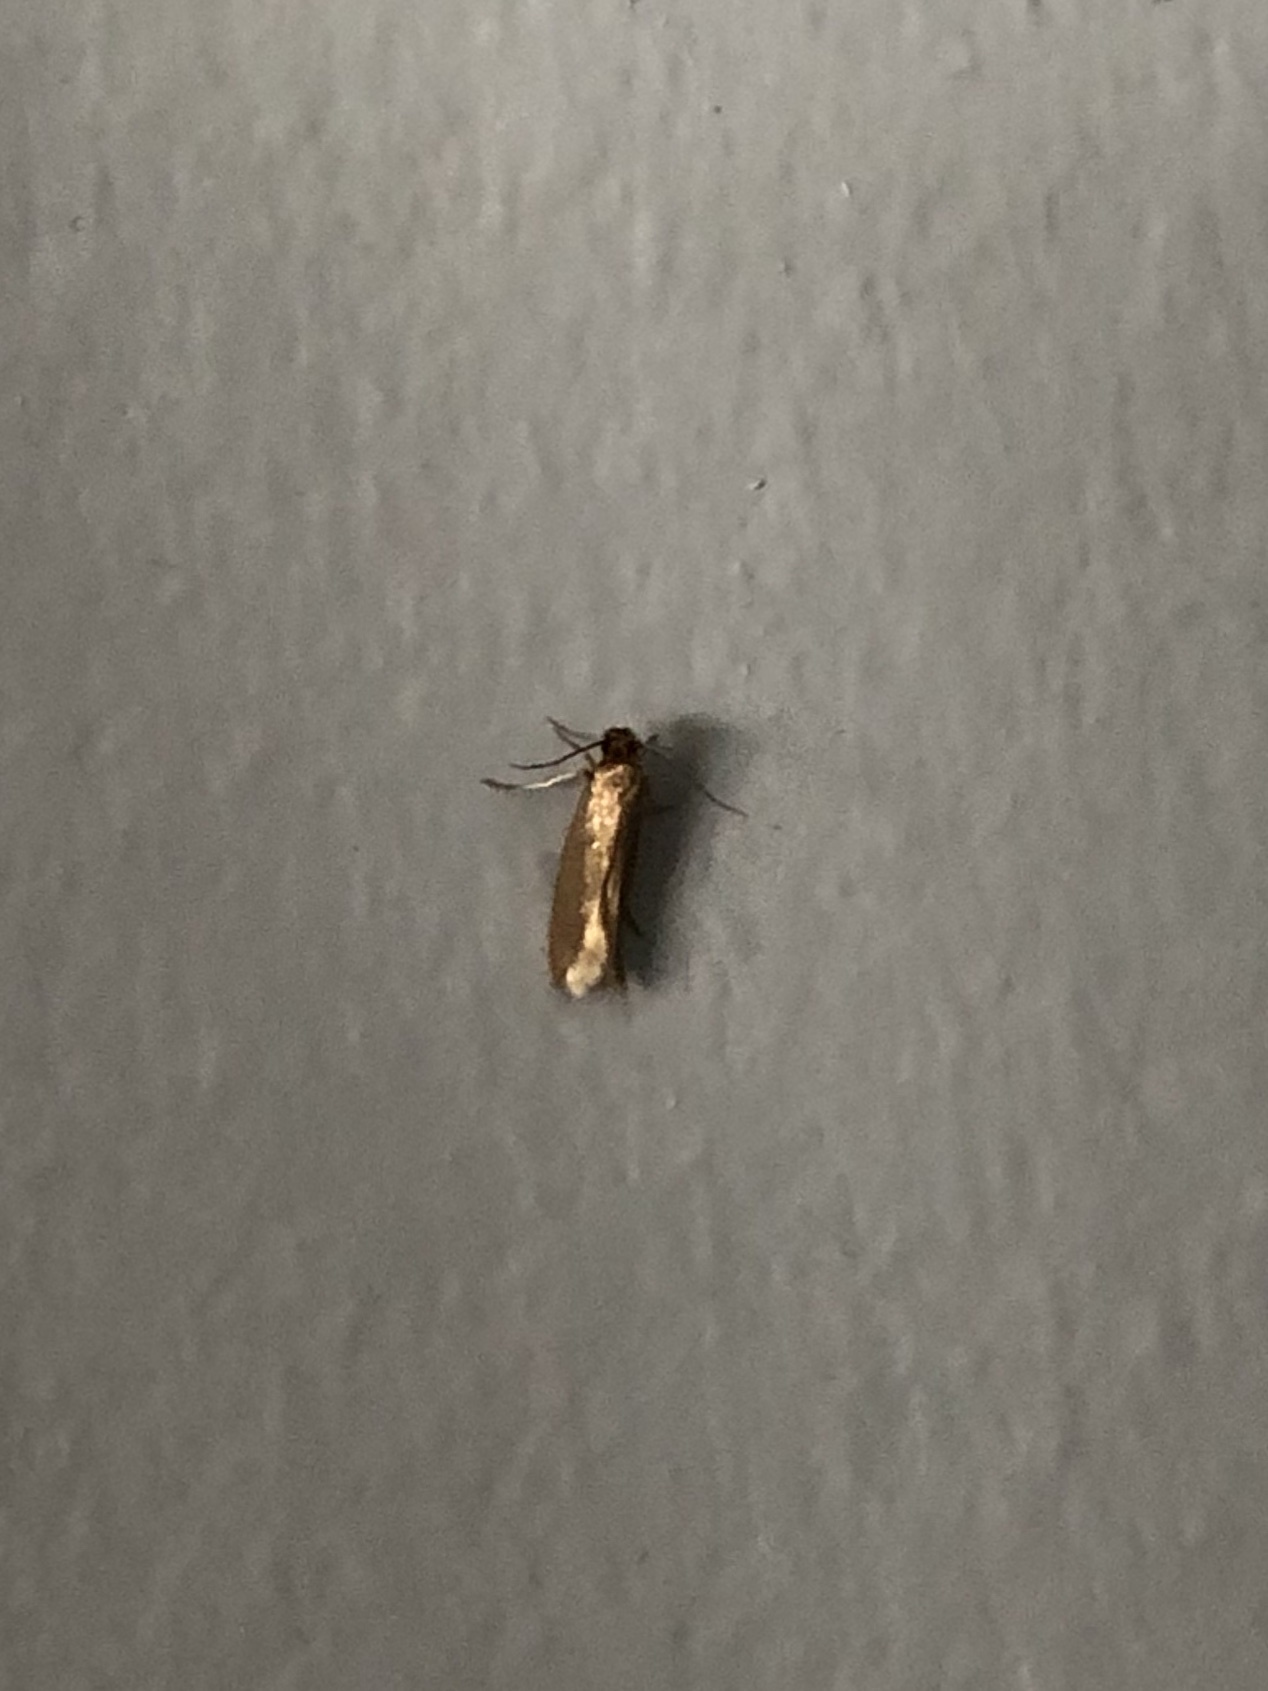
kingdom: Animalia
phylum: Arthropoda
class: Insecta
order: Lepidoptera
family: Tineidae
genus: Tineola
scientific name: Tineola bisselliella
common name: Webbing clothes moth
